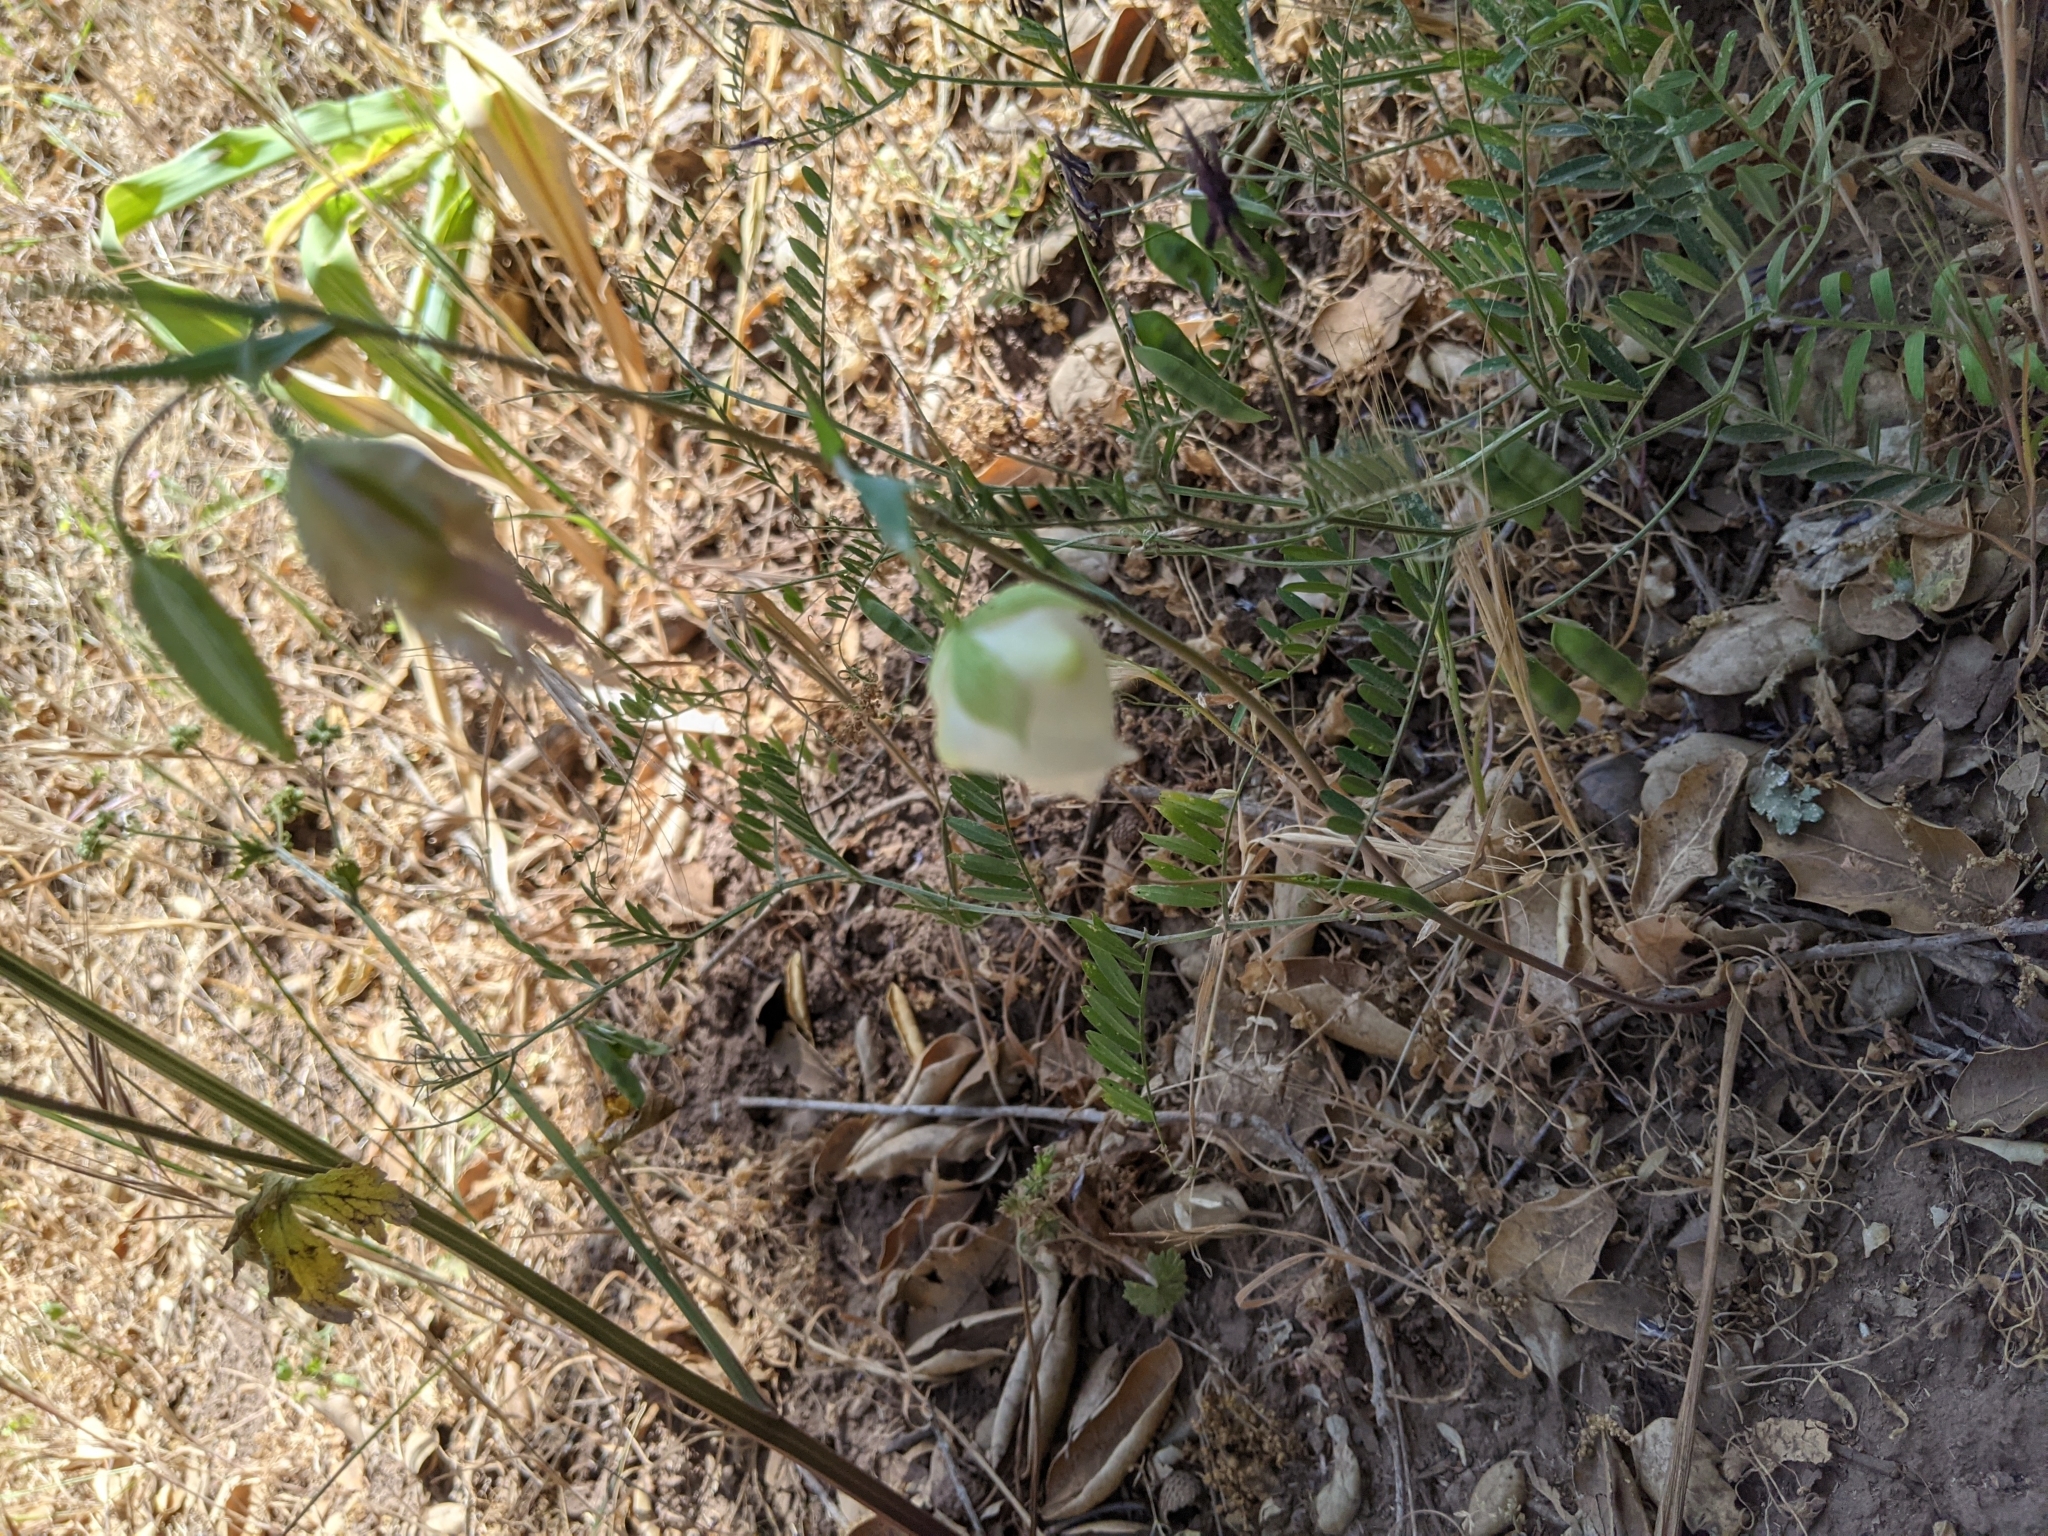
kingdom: Plantae
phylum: Tracheophyta
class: Liliopsida
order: Liliales
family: Liliaceae
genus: Calochortus
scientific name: Calochortus albus
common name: Fairy-lantern
